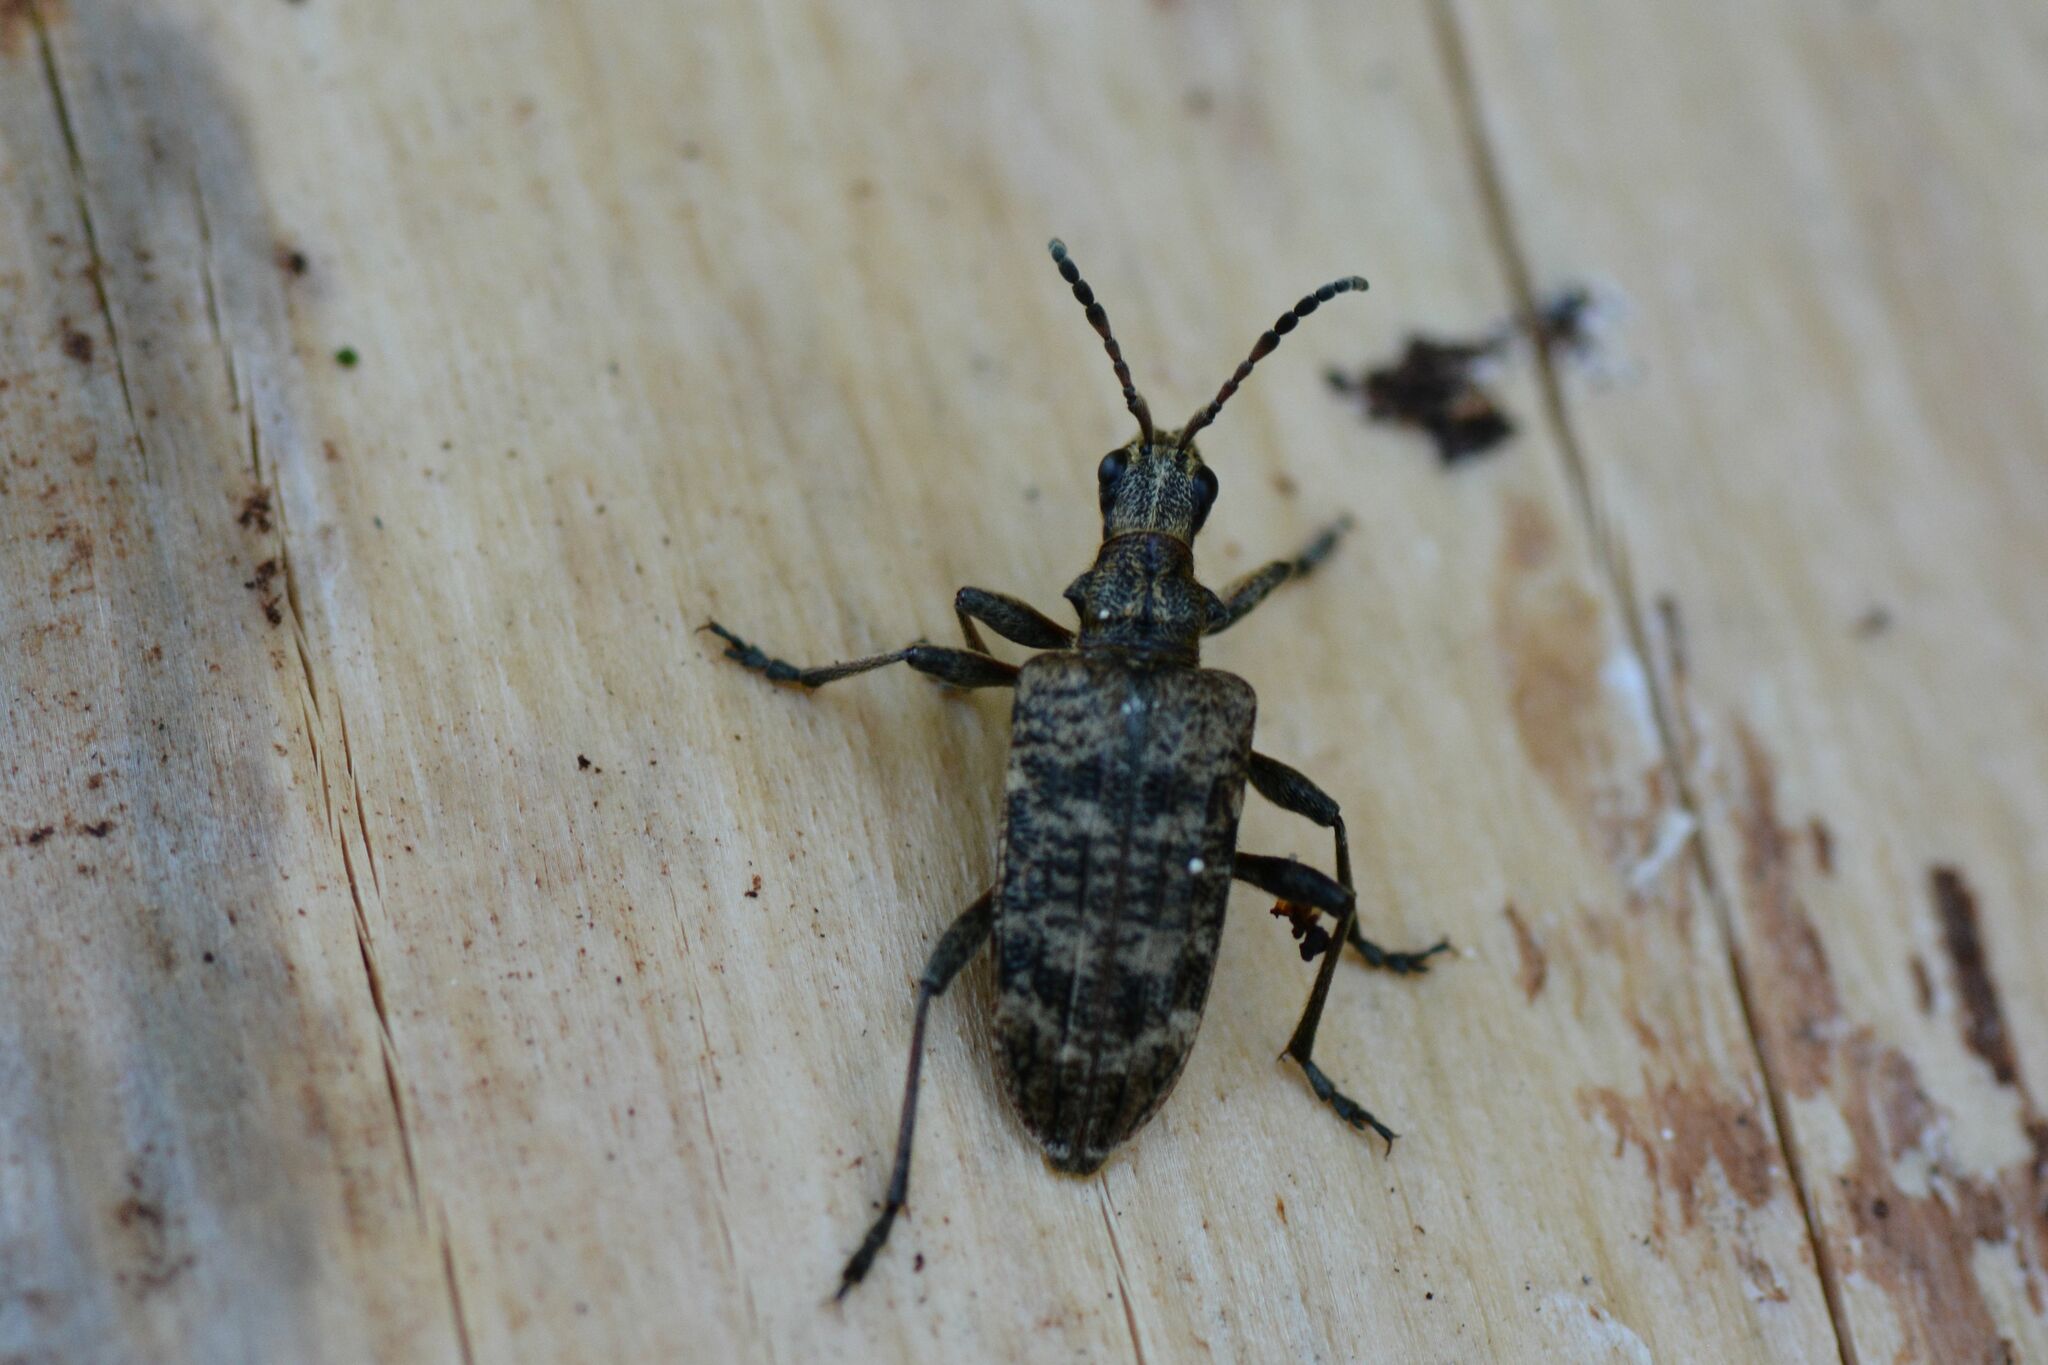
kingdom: Animalia
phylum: Arthropoda
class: Insecta
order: Coleoptera
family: Cerambycidae
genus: Rhagium
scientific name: Rhagium inquisitor
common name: Ribbed pine borer
